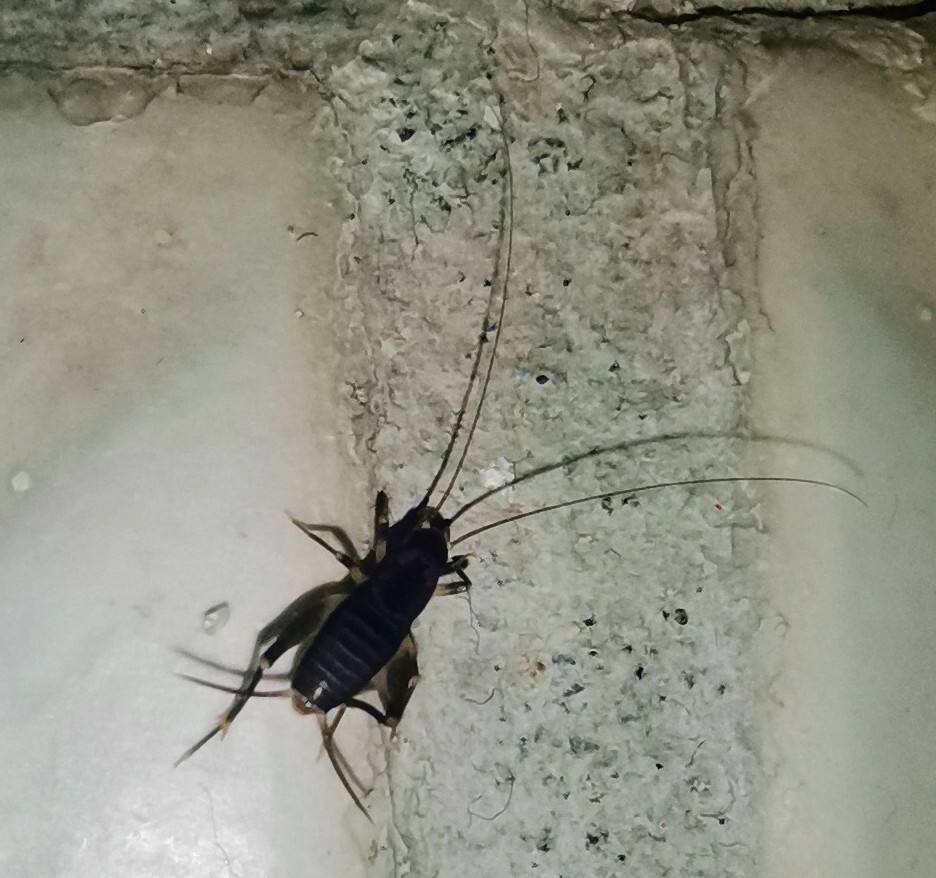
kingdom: Animalia
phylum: Arthropoda
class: Insecta
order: Orthoptera
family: Mogoplistidae
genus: Cycloptiloides
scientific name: Cycloptiloides americanus
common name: Saussure’s scaly cricket
